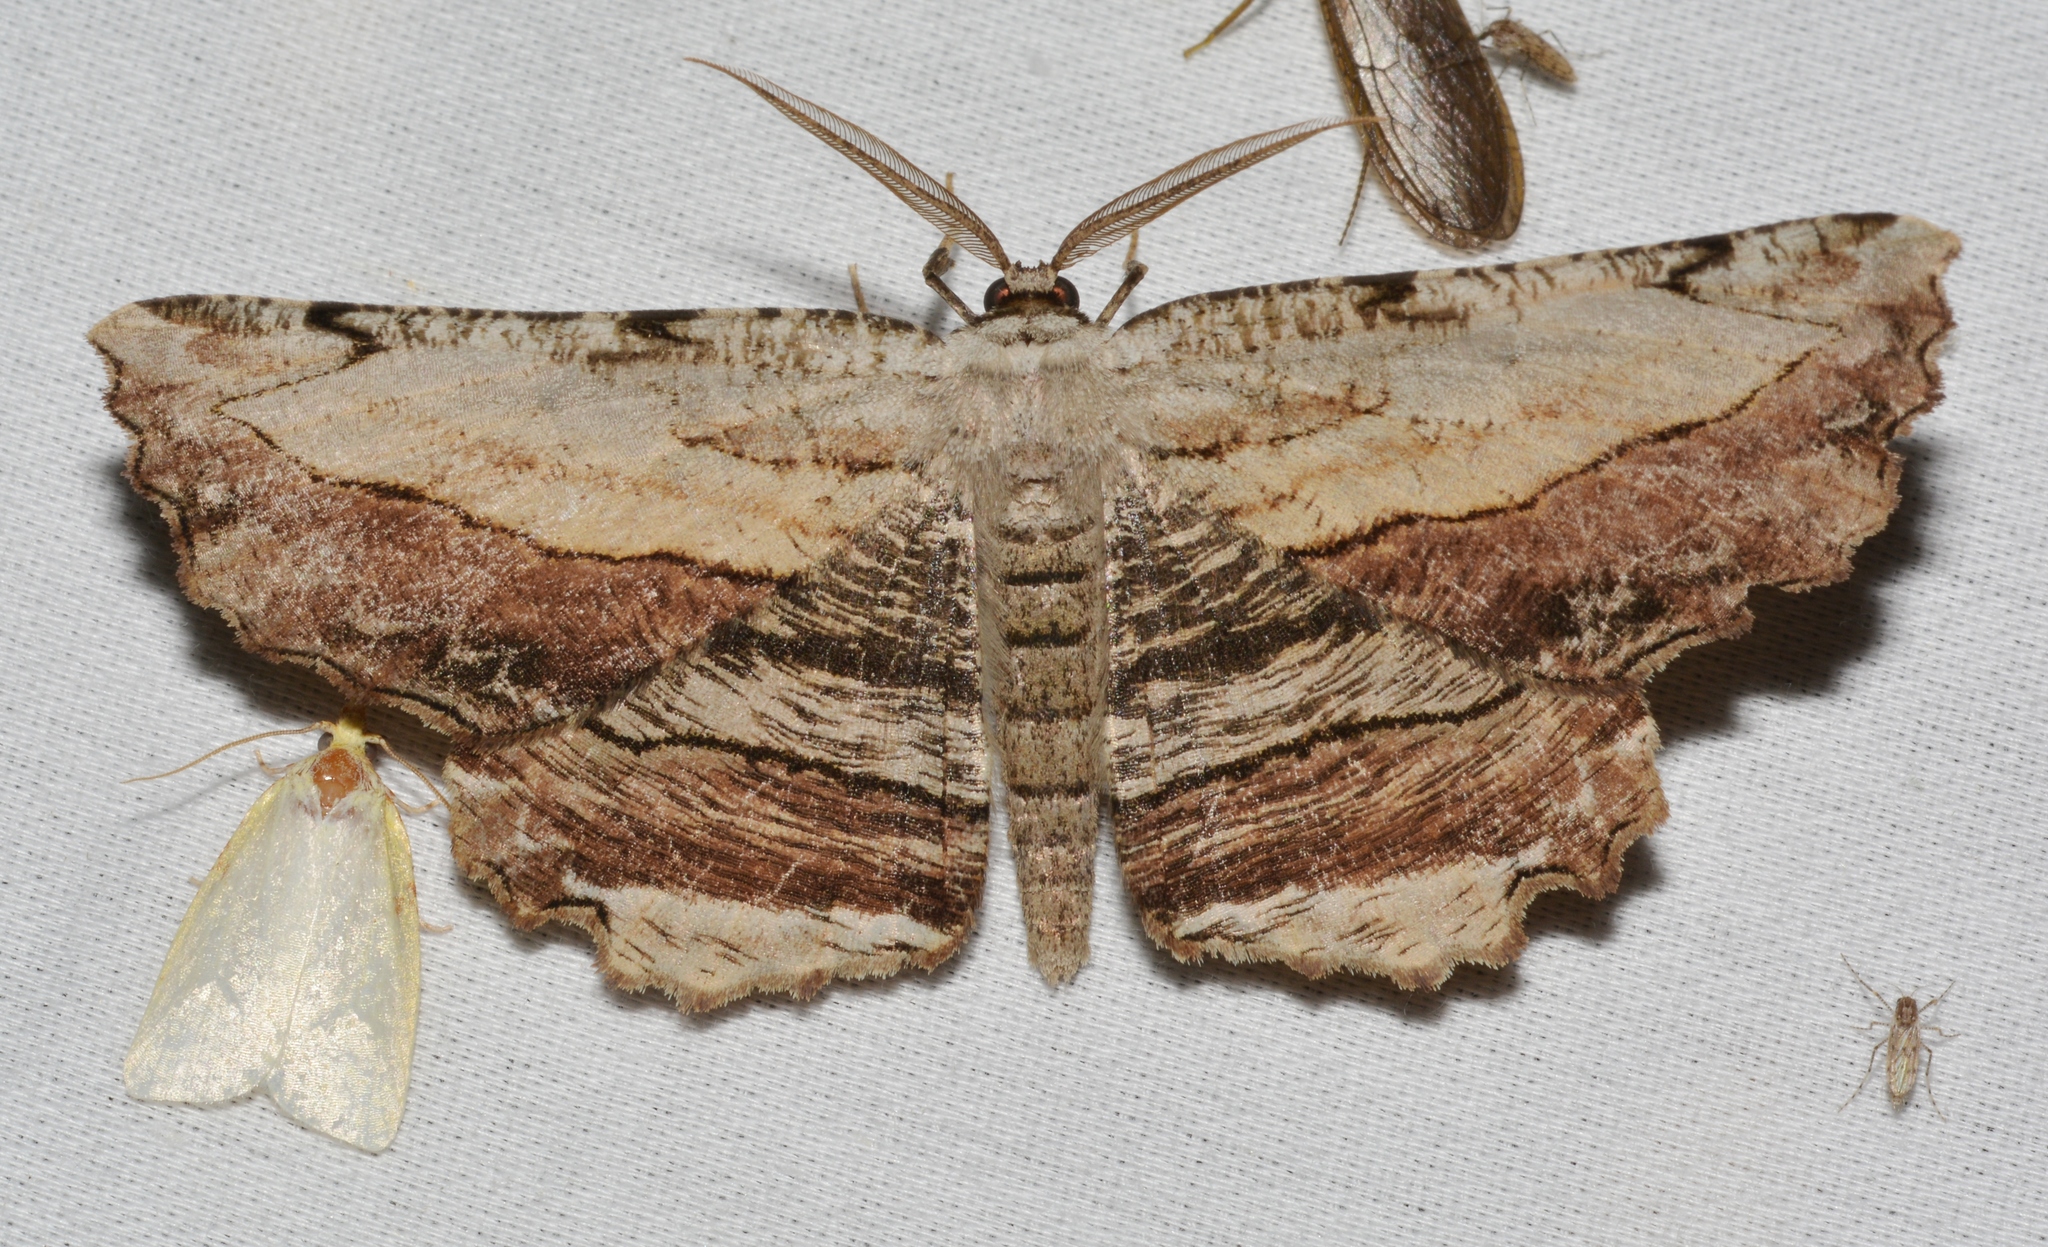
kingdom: Animalia
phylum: Arthropoda
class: Insecta
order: Lepidoptera
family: Geometridae
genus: Lytrosis
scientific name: Lytrosis unitaria
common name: Common lytrosis
